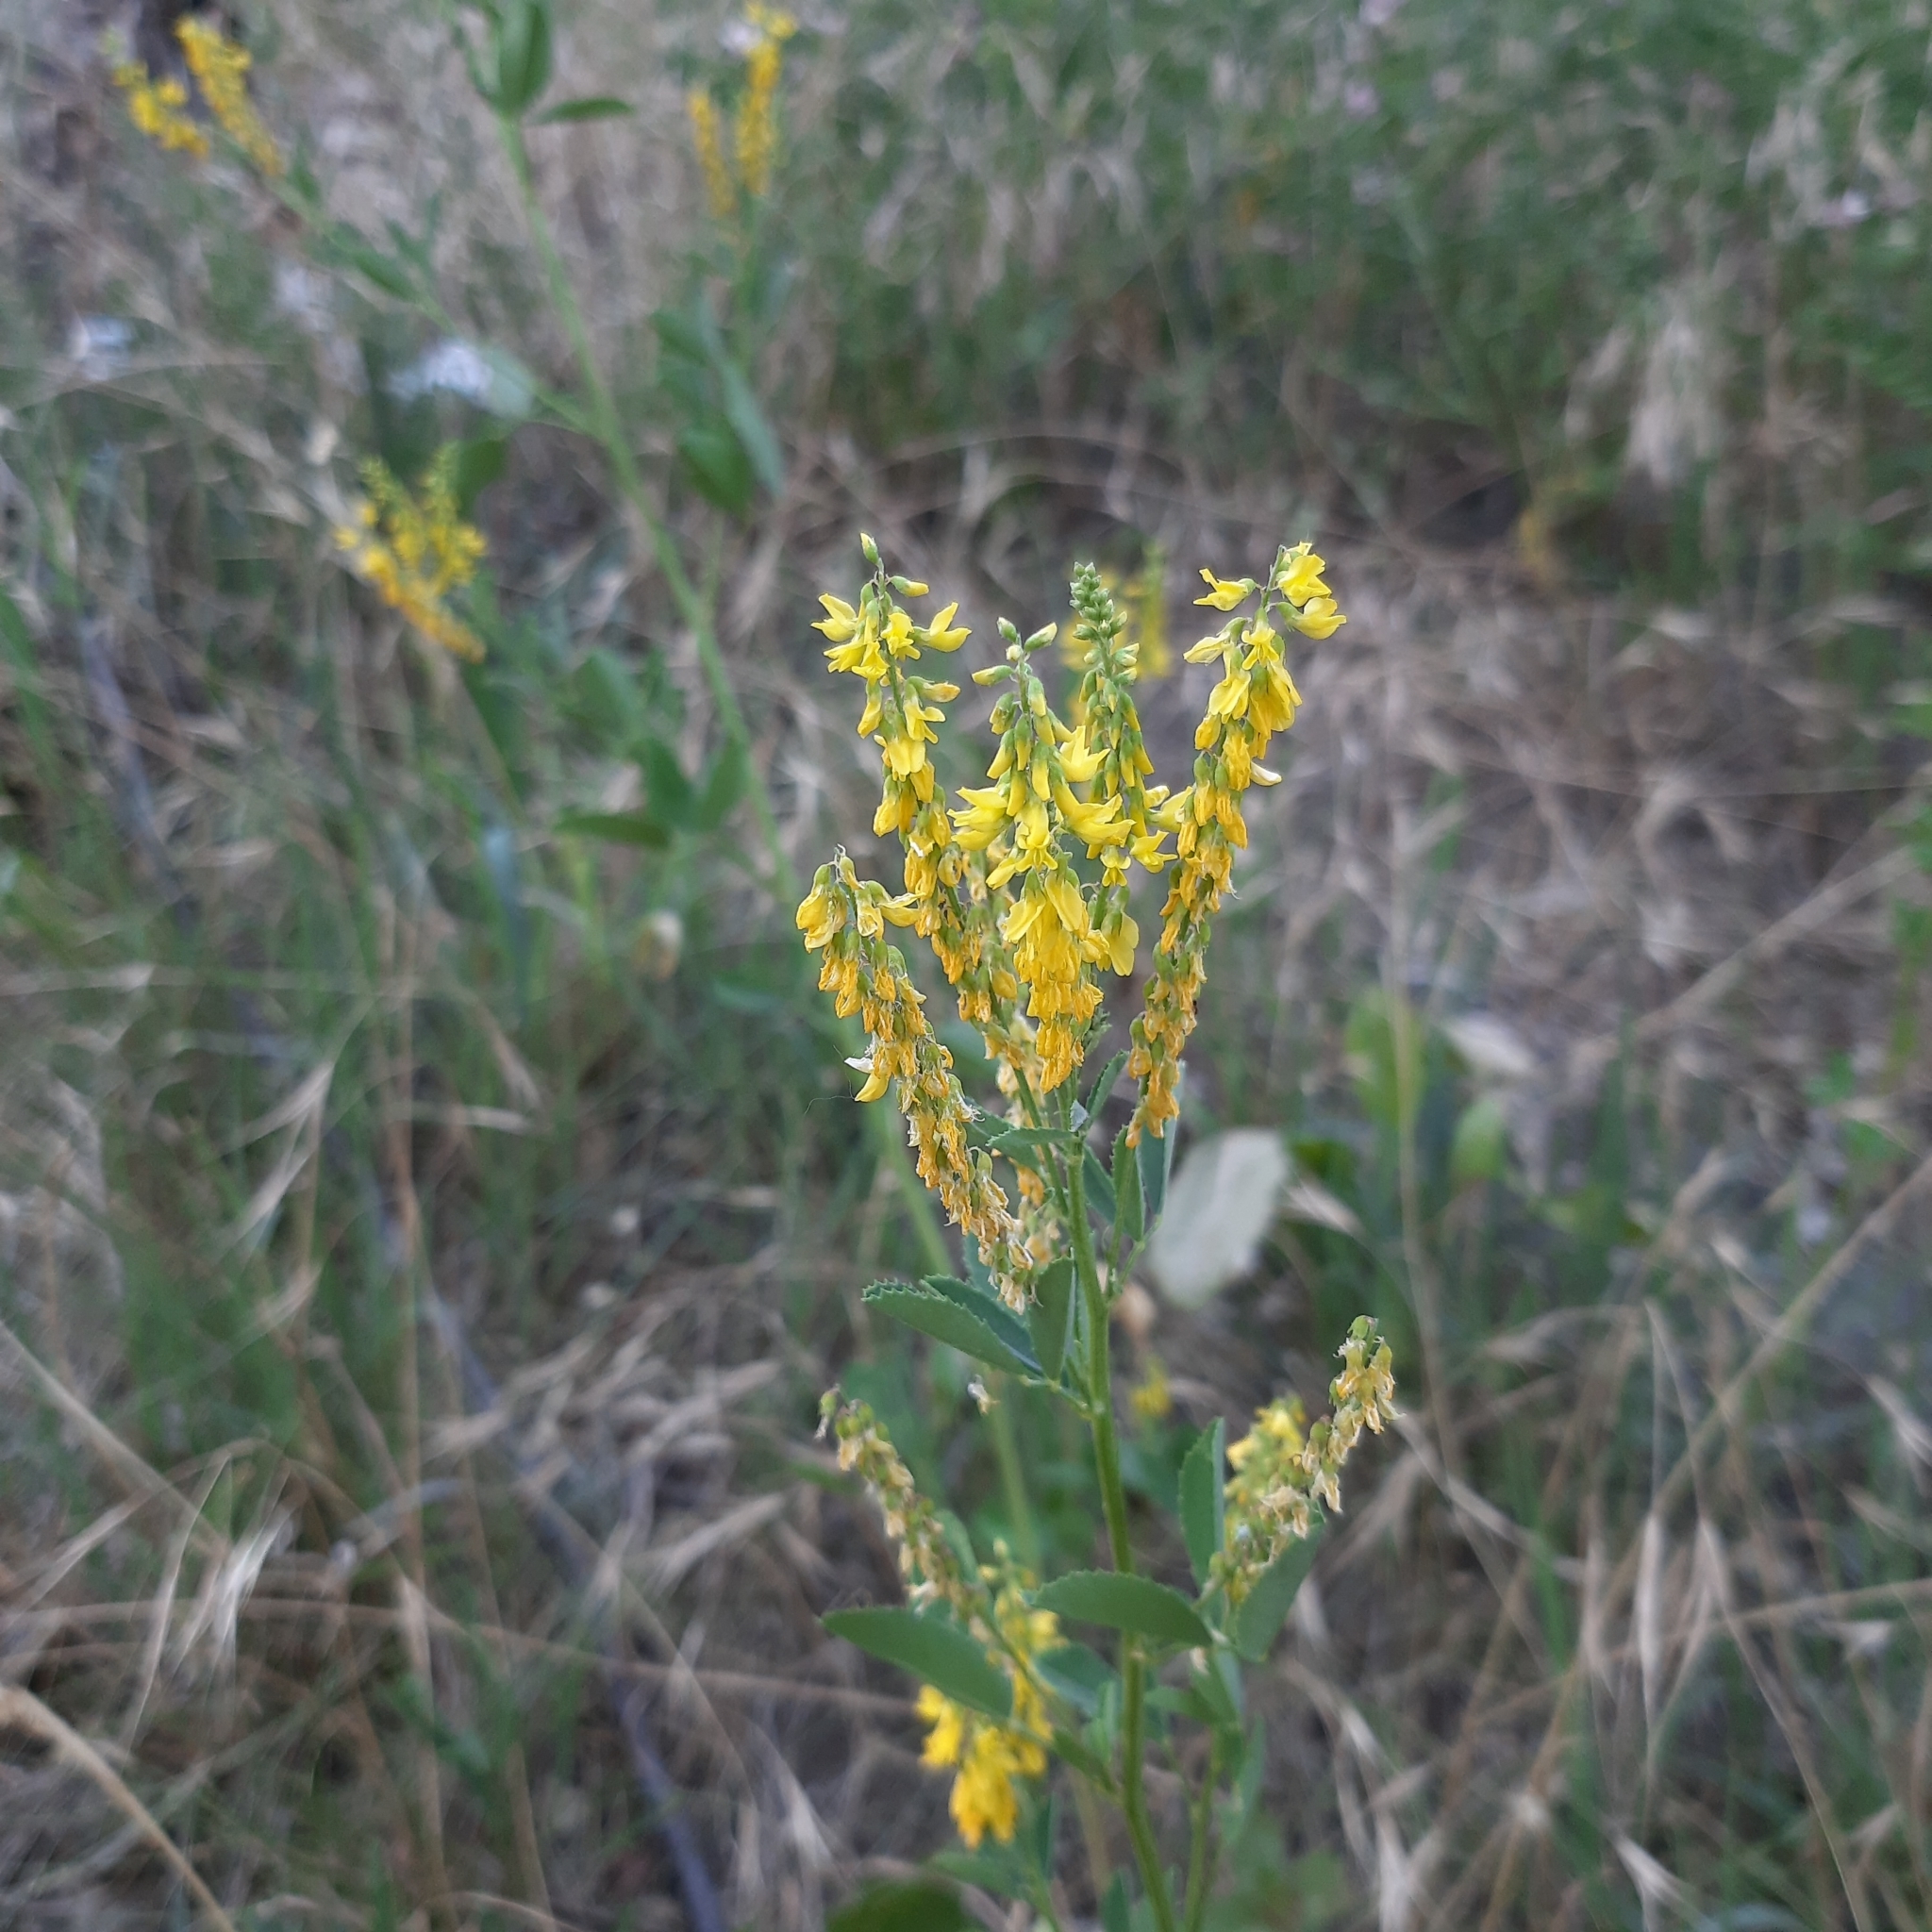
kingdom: Plantae
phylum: Tracheophyta
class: Magnoliopsida
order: Fabales
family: Fabaceae
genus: Melilotus
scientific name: Melilotus officinalis
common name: Sweetclover
